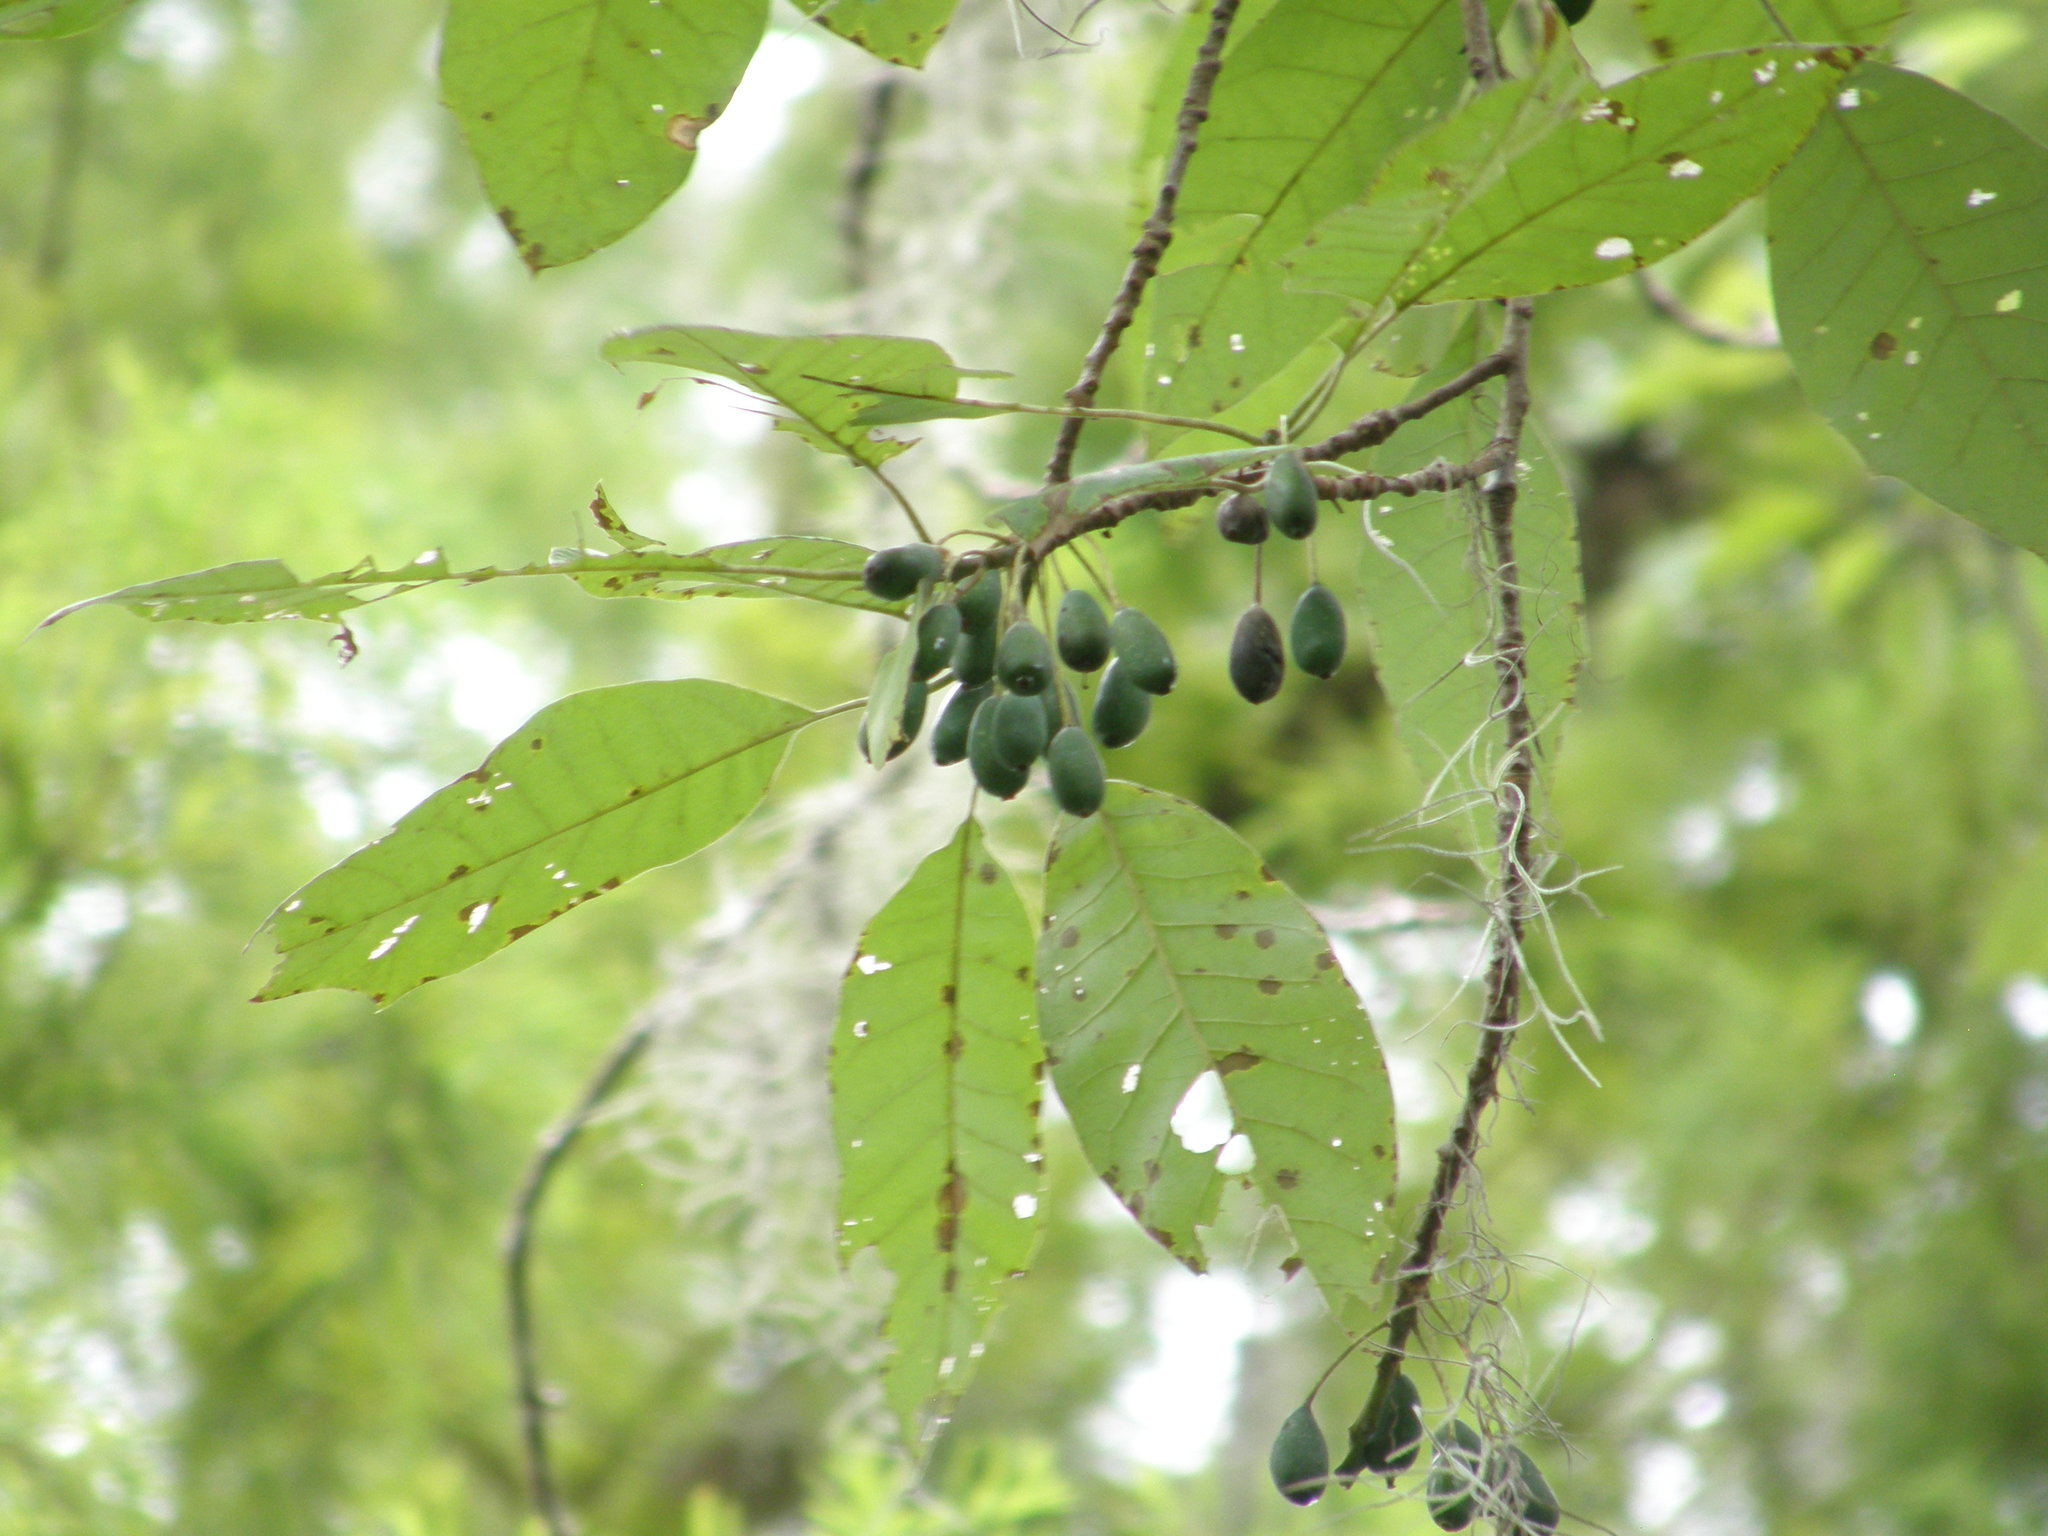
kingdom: Plantae
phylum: Tracheophyta
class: Magnoliopsida
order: Cornales
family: Nyssaceae
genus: Nyssa
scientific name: Nyssa aquatica
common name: Swamp tupelo
